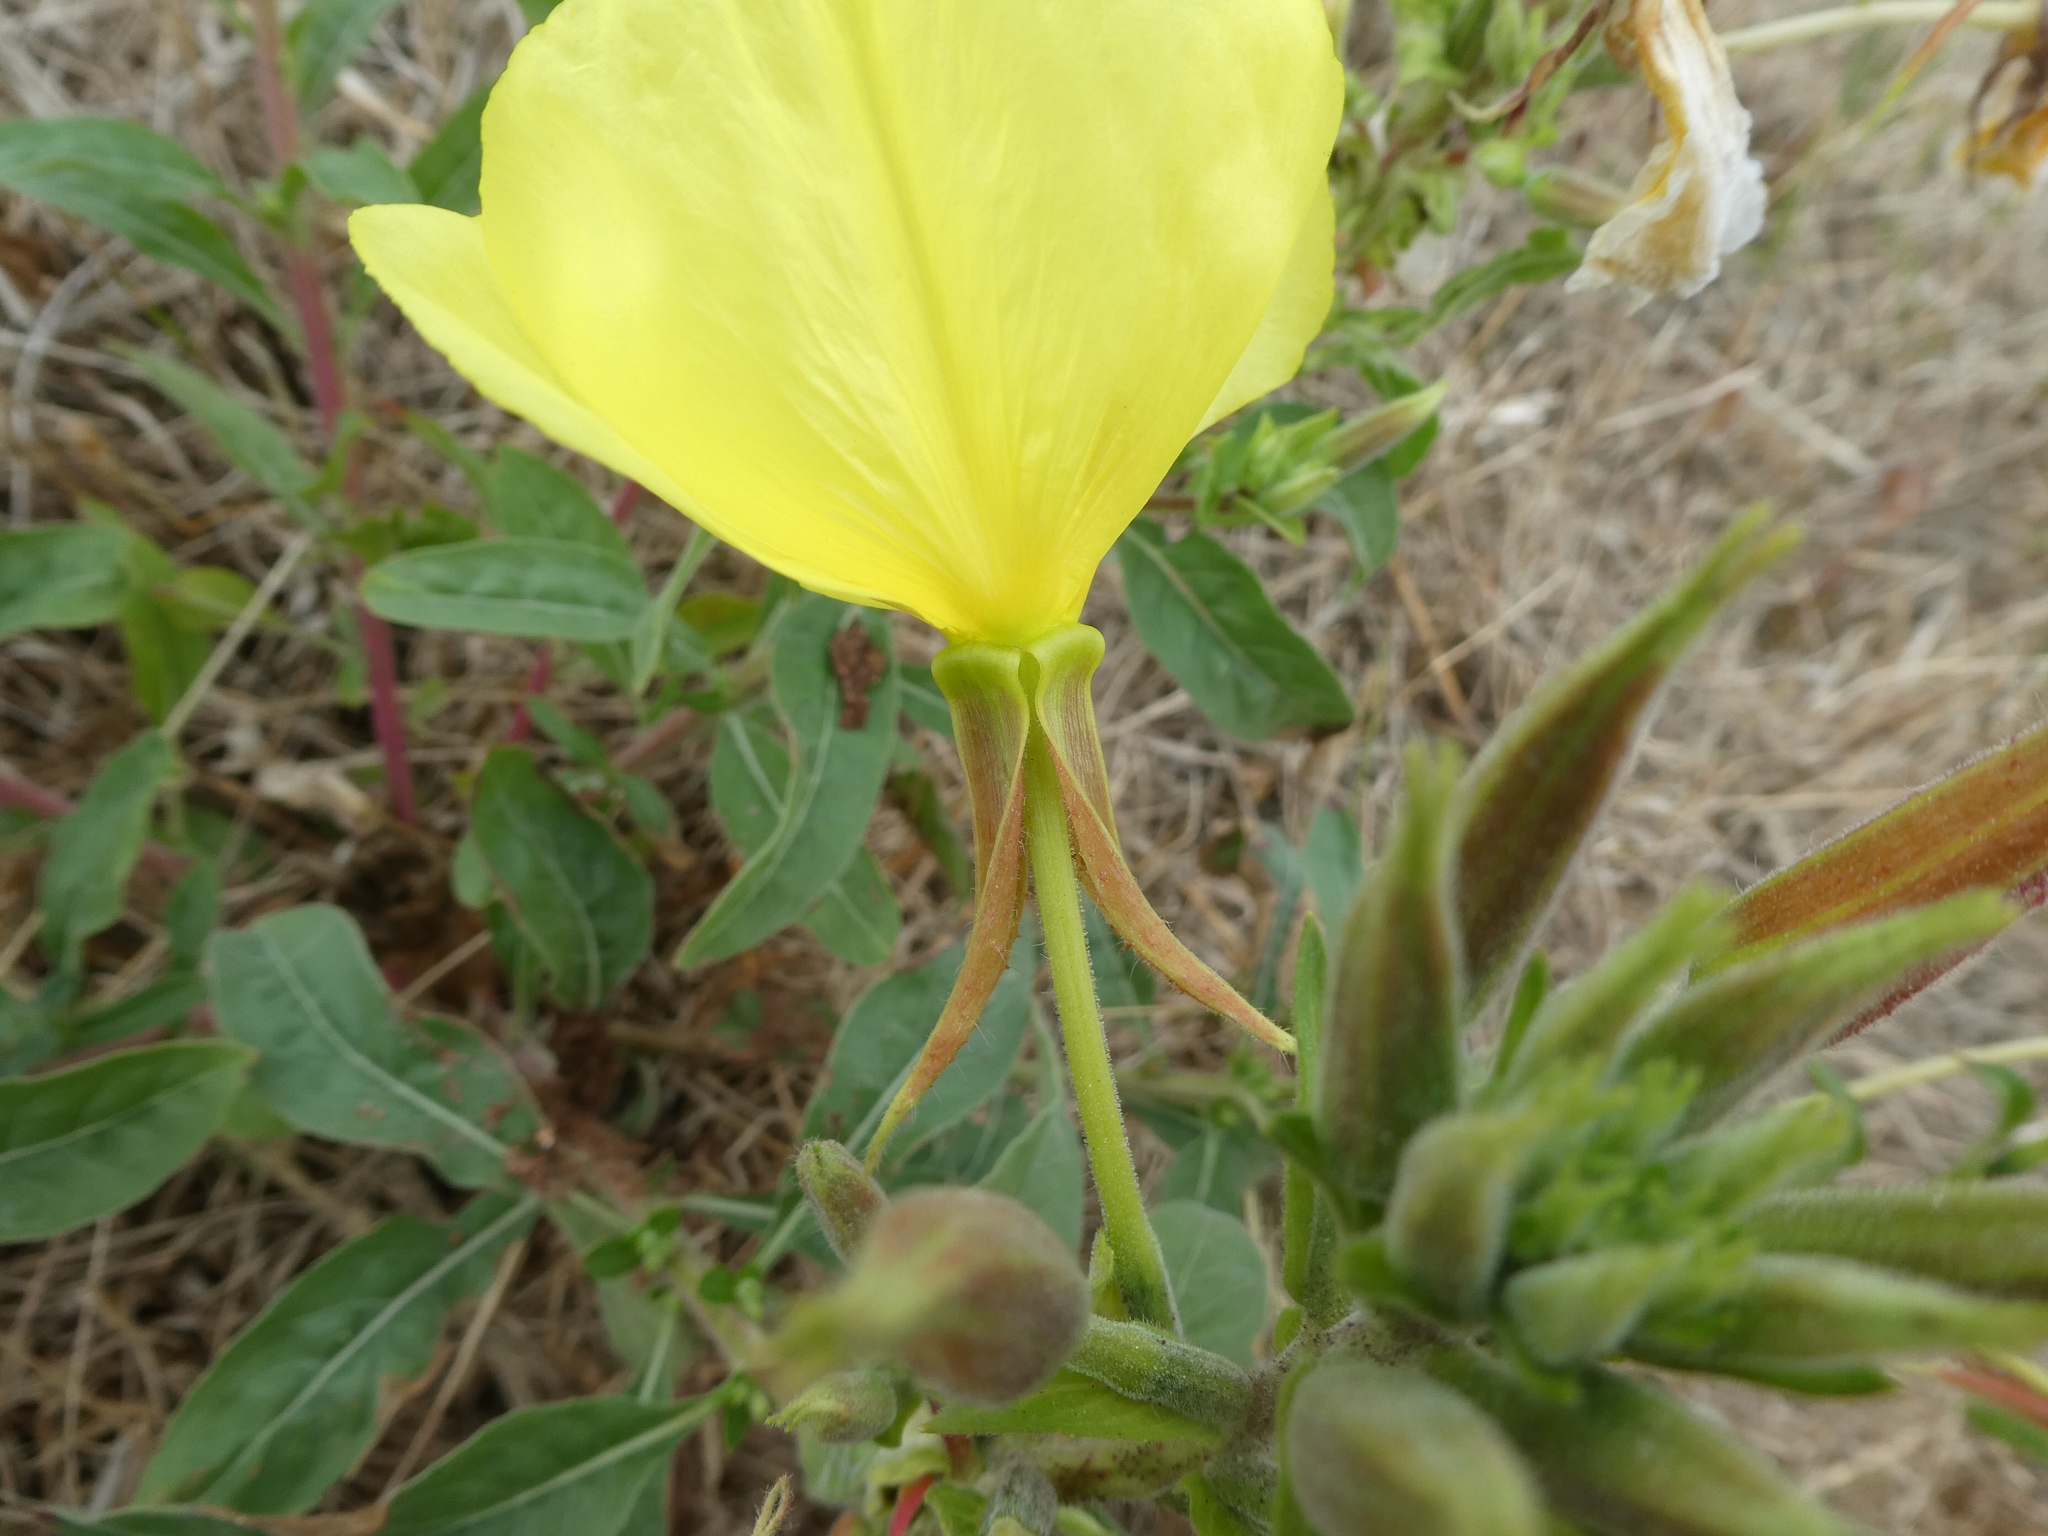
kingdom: Plantae
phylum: Tracheophyta
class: Magnoliopsida
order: Myrtales
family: Onagraceae
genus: Oenothera
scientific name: Oenothera glazioviana
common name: Large-flowered evening-primrose
